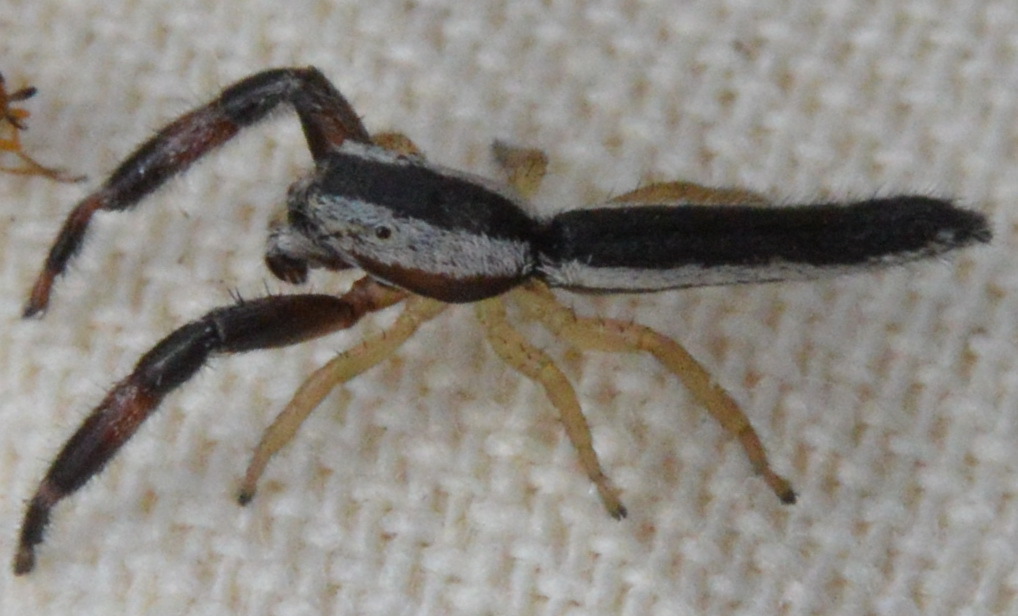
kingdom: Animalia
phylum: Arthropoda
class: Arachnida
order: Araneae
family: Salticidae
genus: Marpissa
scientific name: Marpissa pikei
